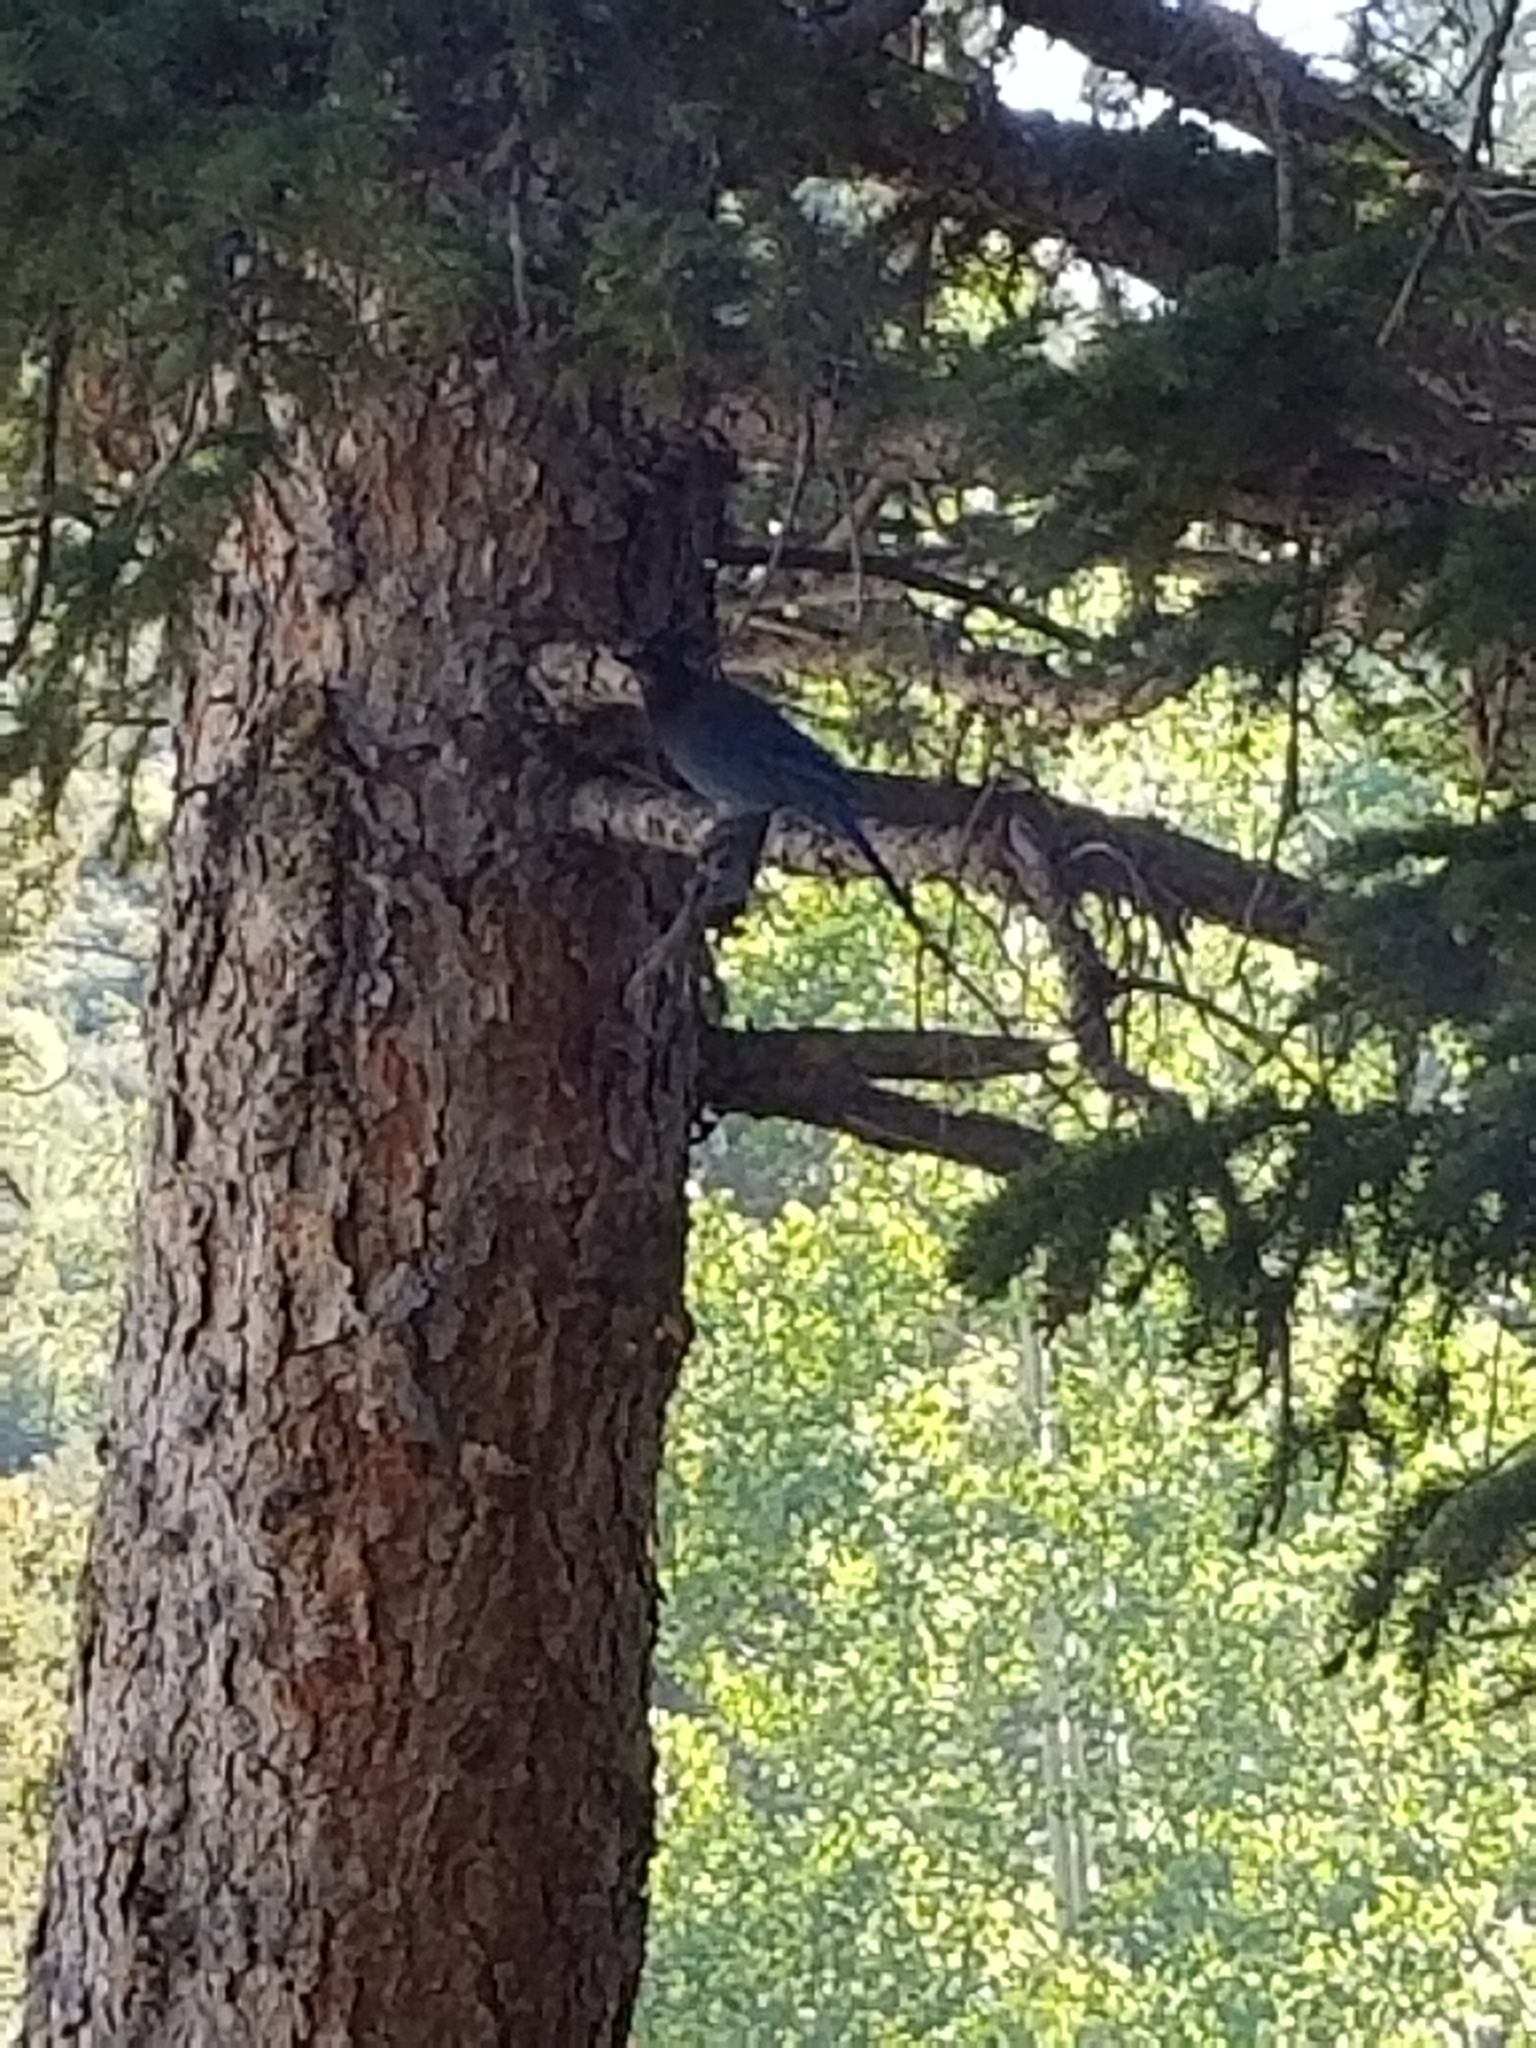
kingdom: Animalia
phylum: Chordata
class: Aves
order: Passeriformes
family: Corvidae
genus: Cyanocitta
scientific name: Cyanocitta stelleri
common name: Steller's jay
